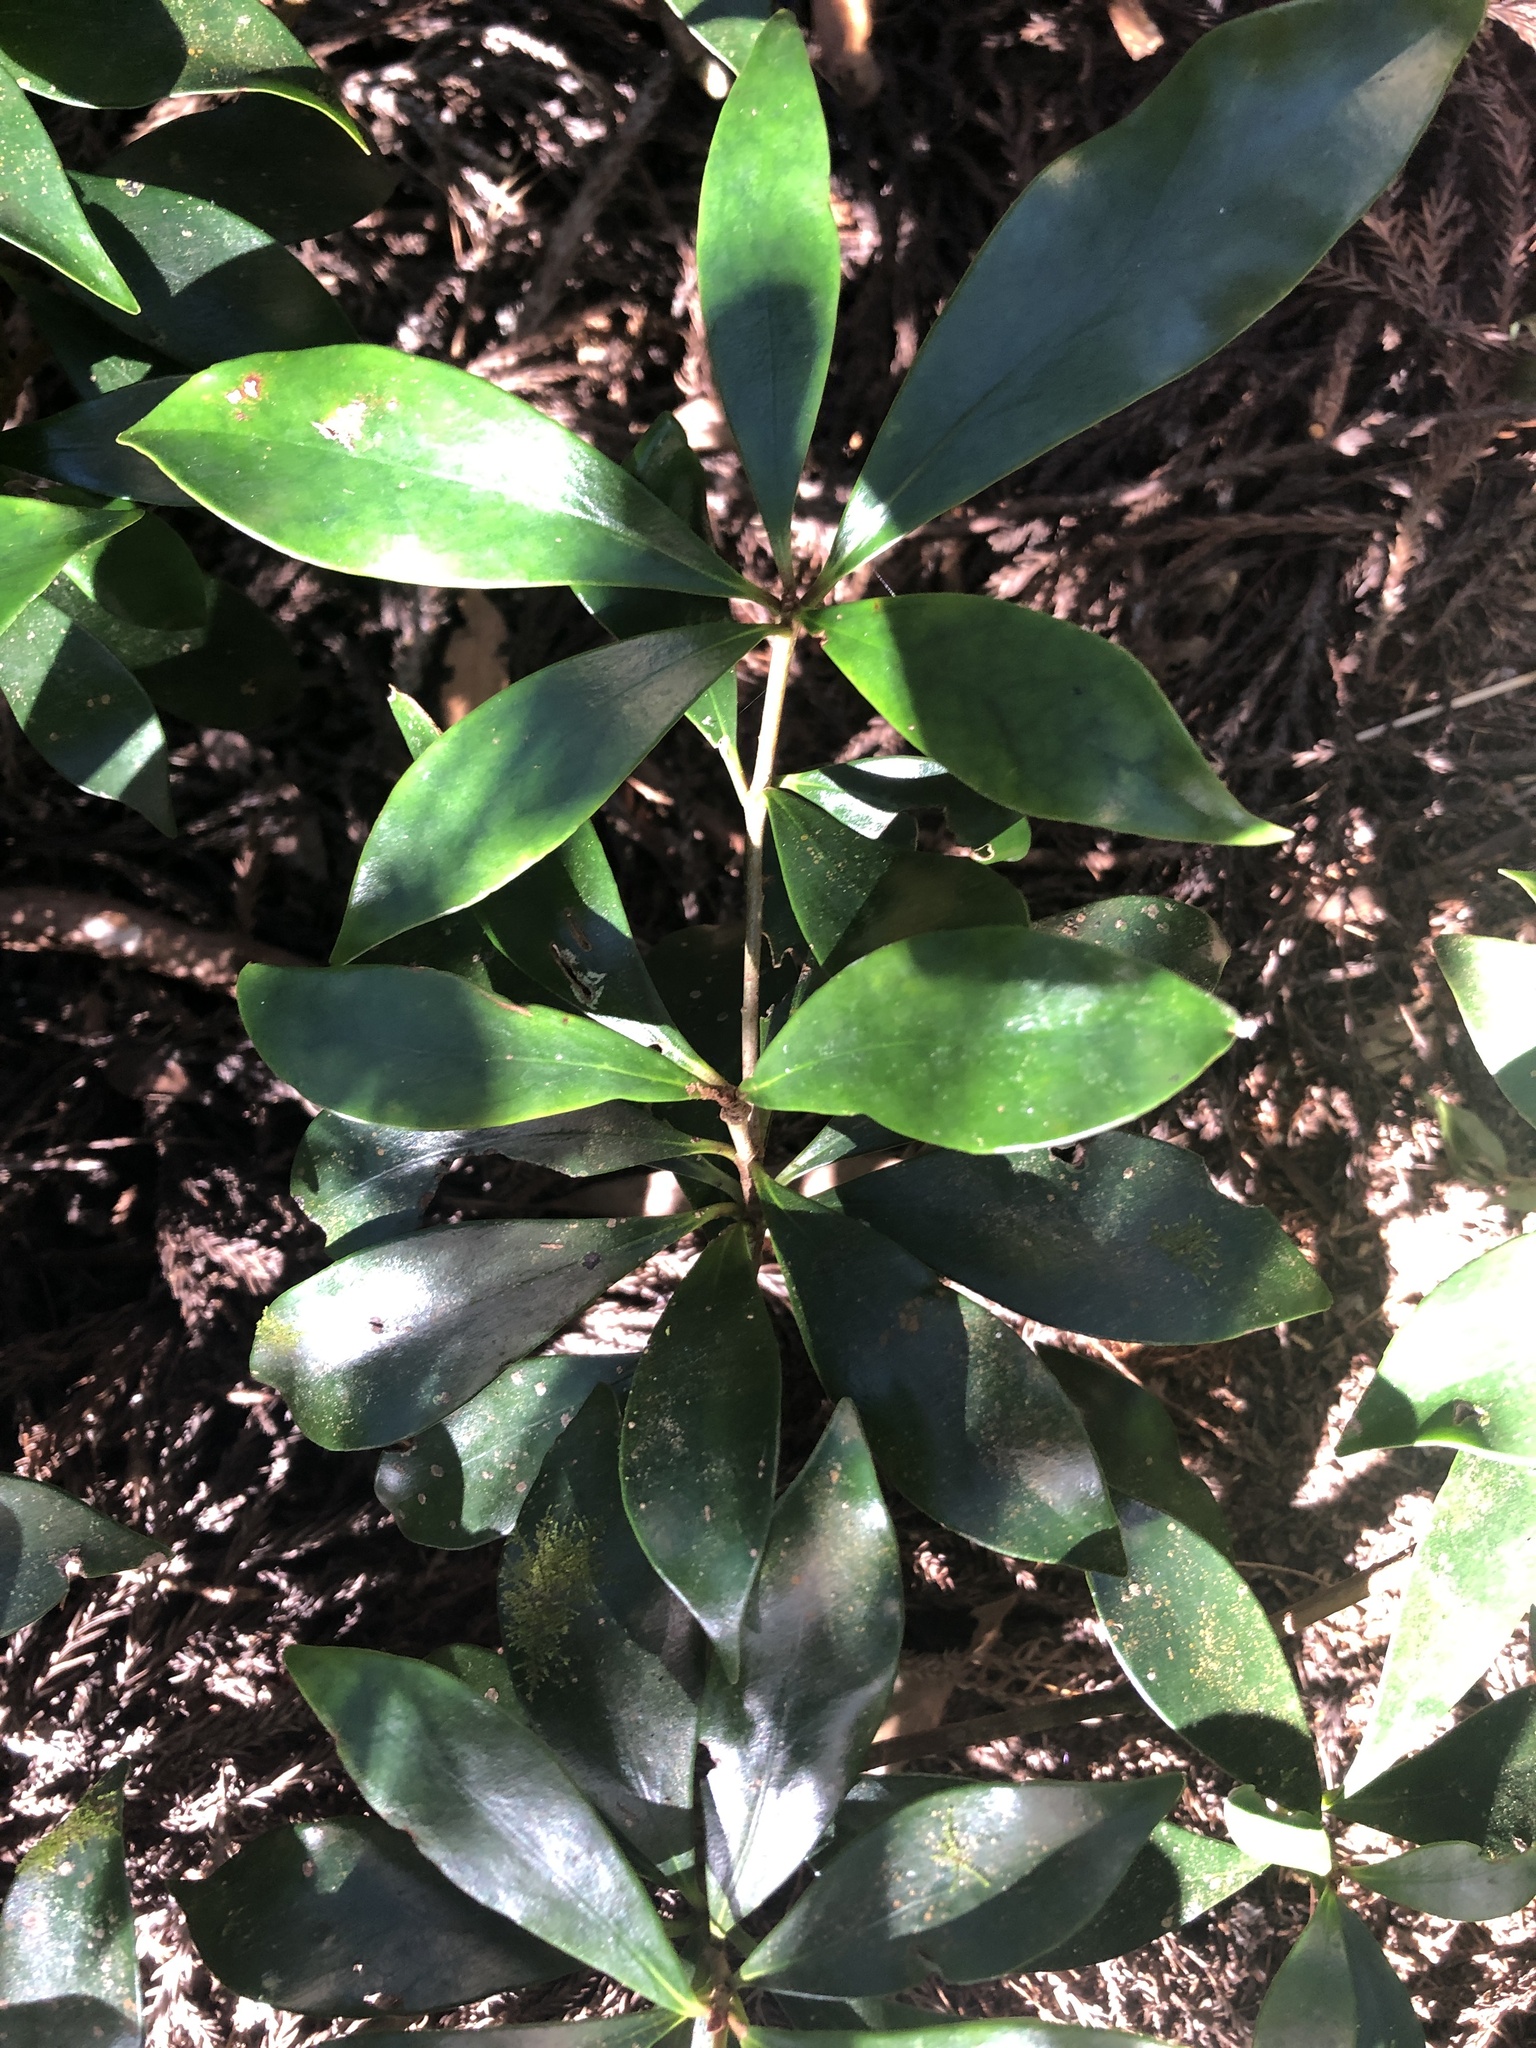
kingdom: Plantae
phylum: Tracheophyta
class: Magnoliopsida
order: Ericales
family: Pentaphylacaceae
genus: Ternstroemia
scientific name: Ternstroemia gymnanthera
